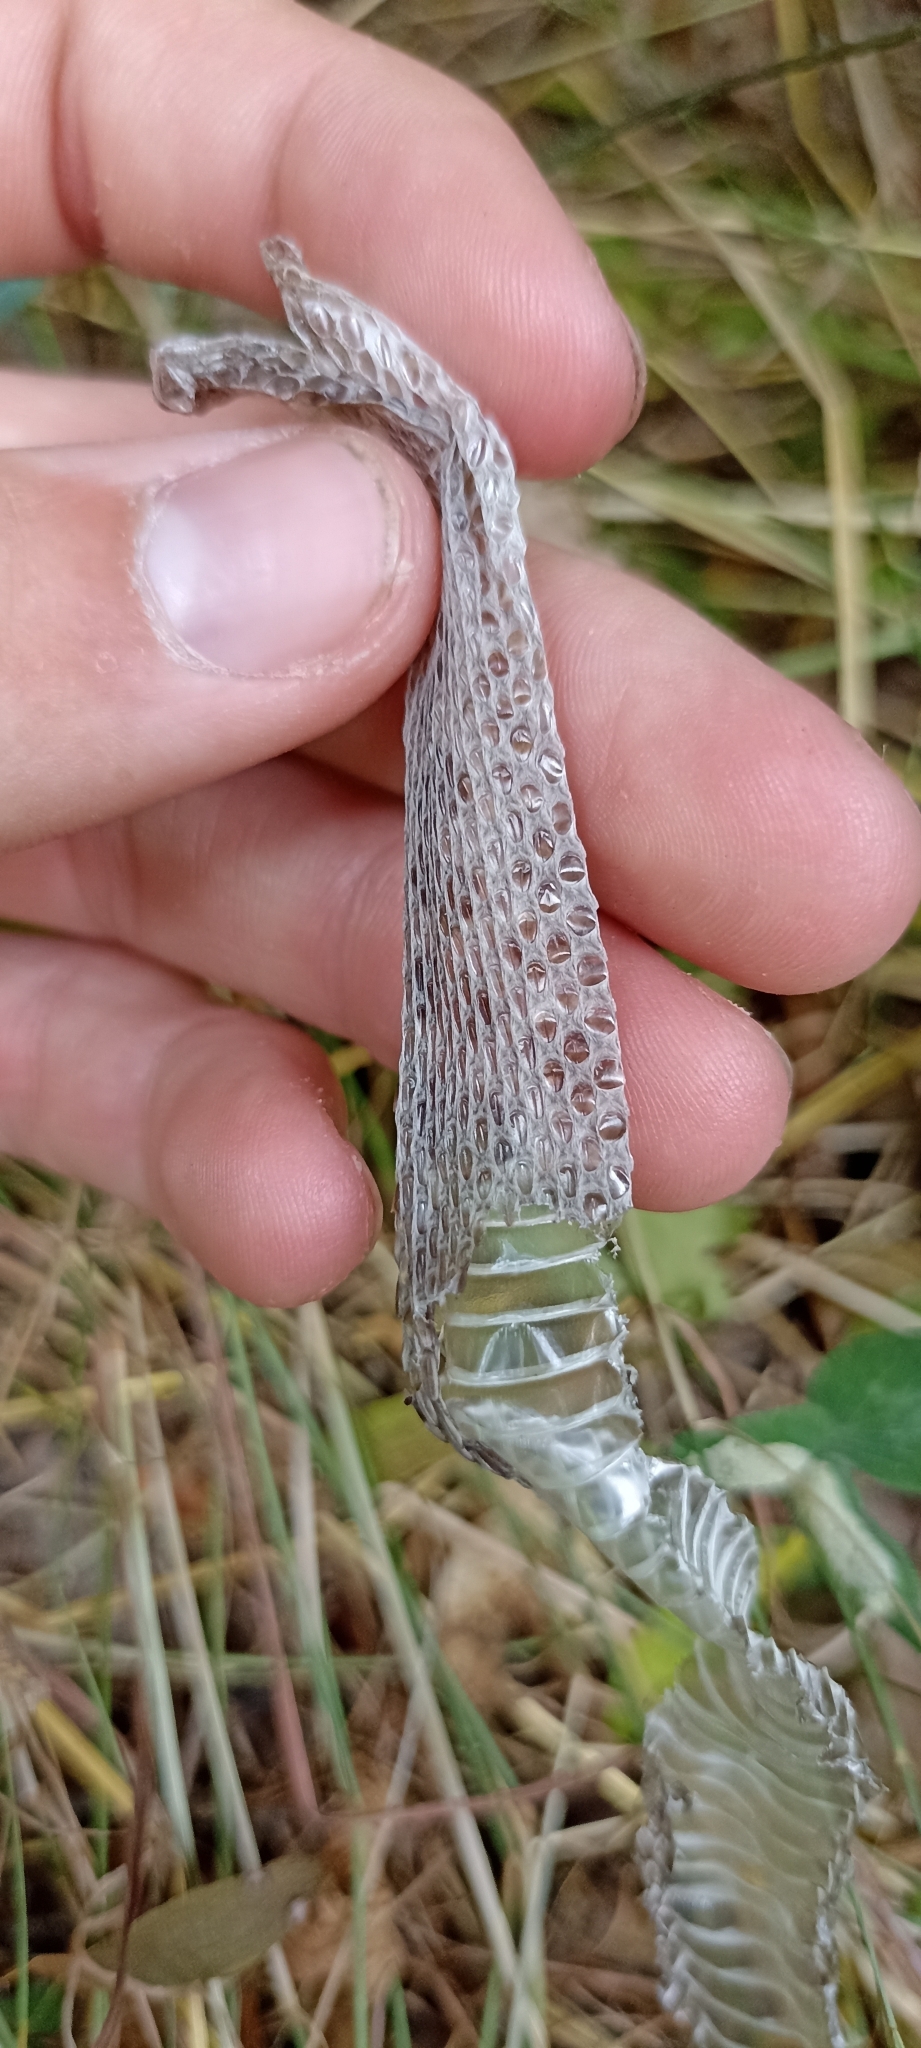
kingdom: Animalia
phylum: Chordata
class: Squamata
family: Viperidae
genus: Vipera
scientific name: Vipera ursinii
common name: Meadow viper
